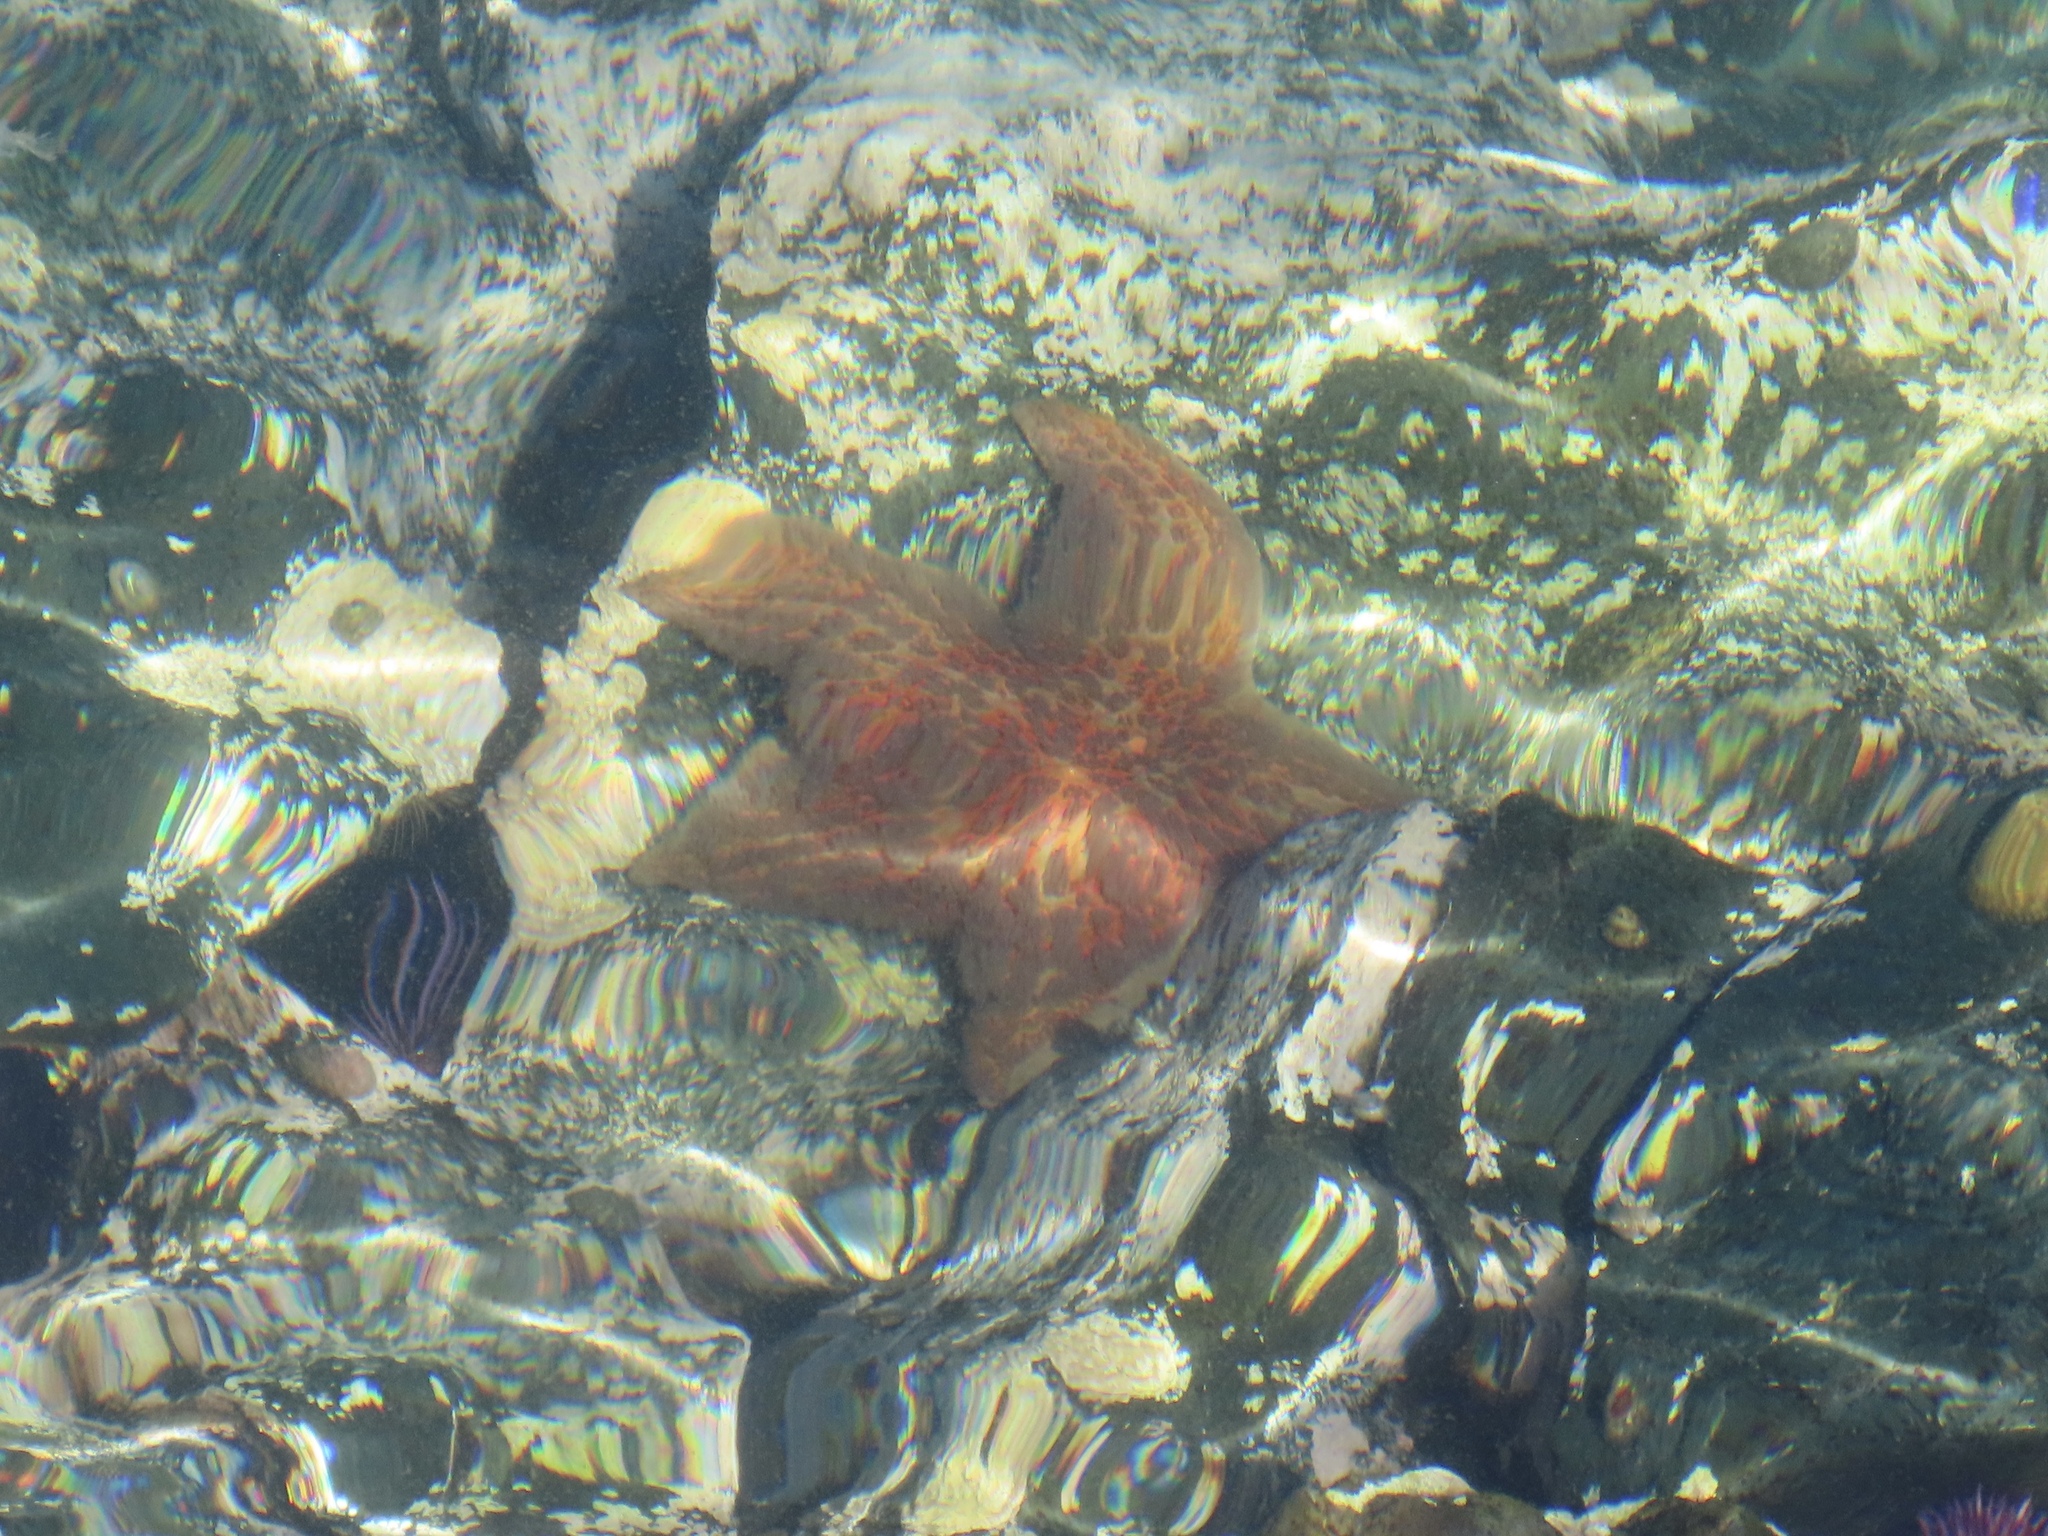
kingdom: Animalia
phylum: Echinodermata
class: Asteroidea
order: Valvatida
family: Asteropseidae
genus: Dermasterias
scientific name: Dermasterias imbricata
